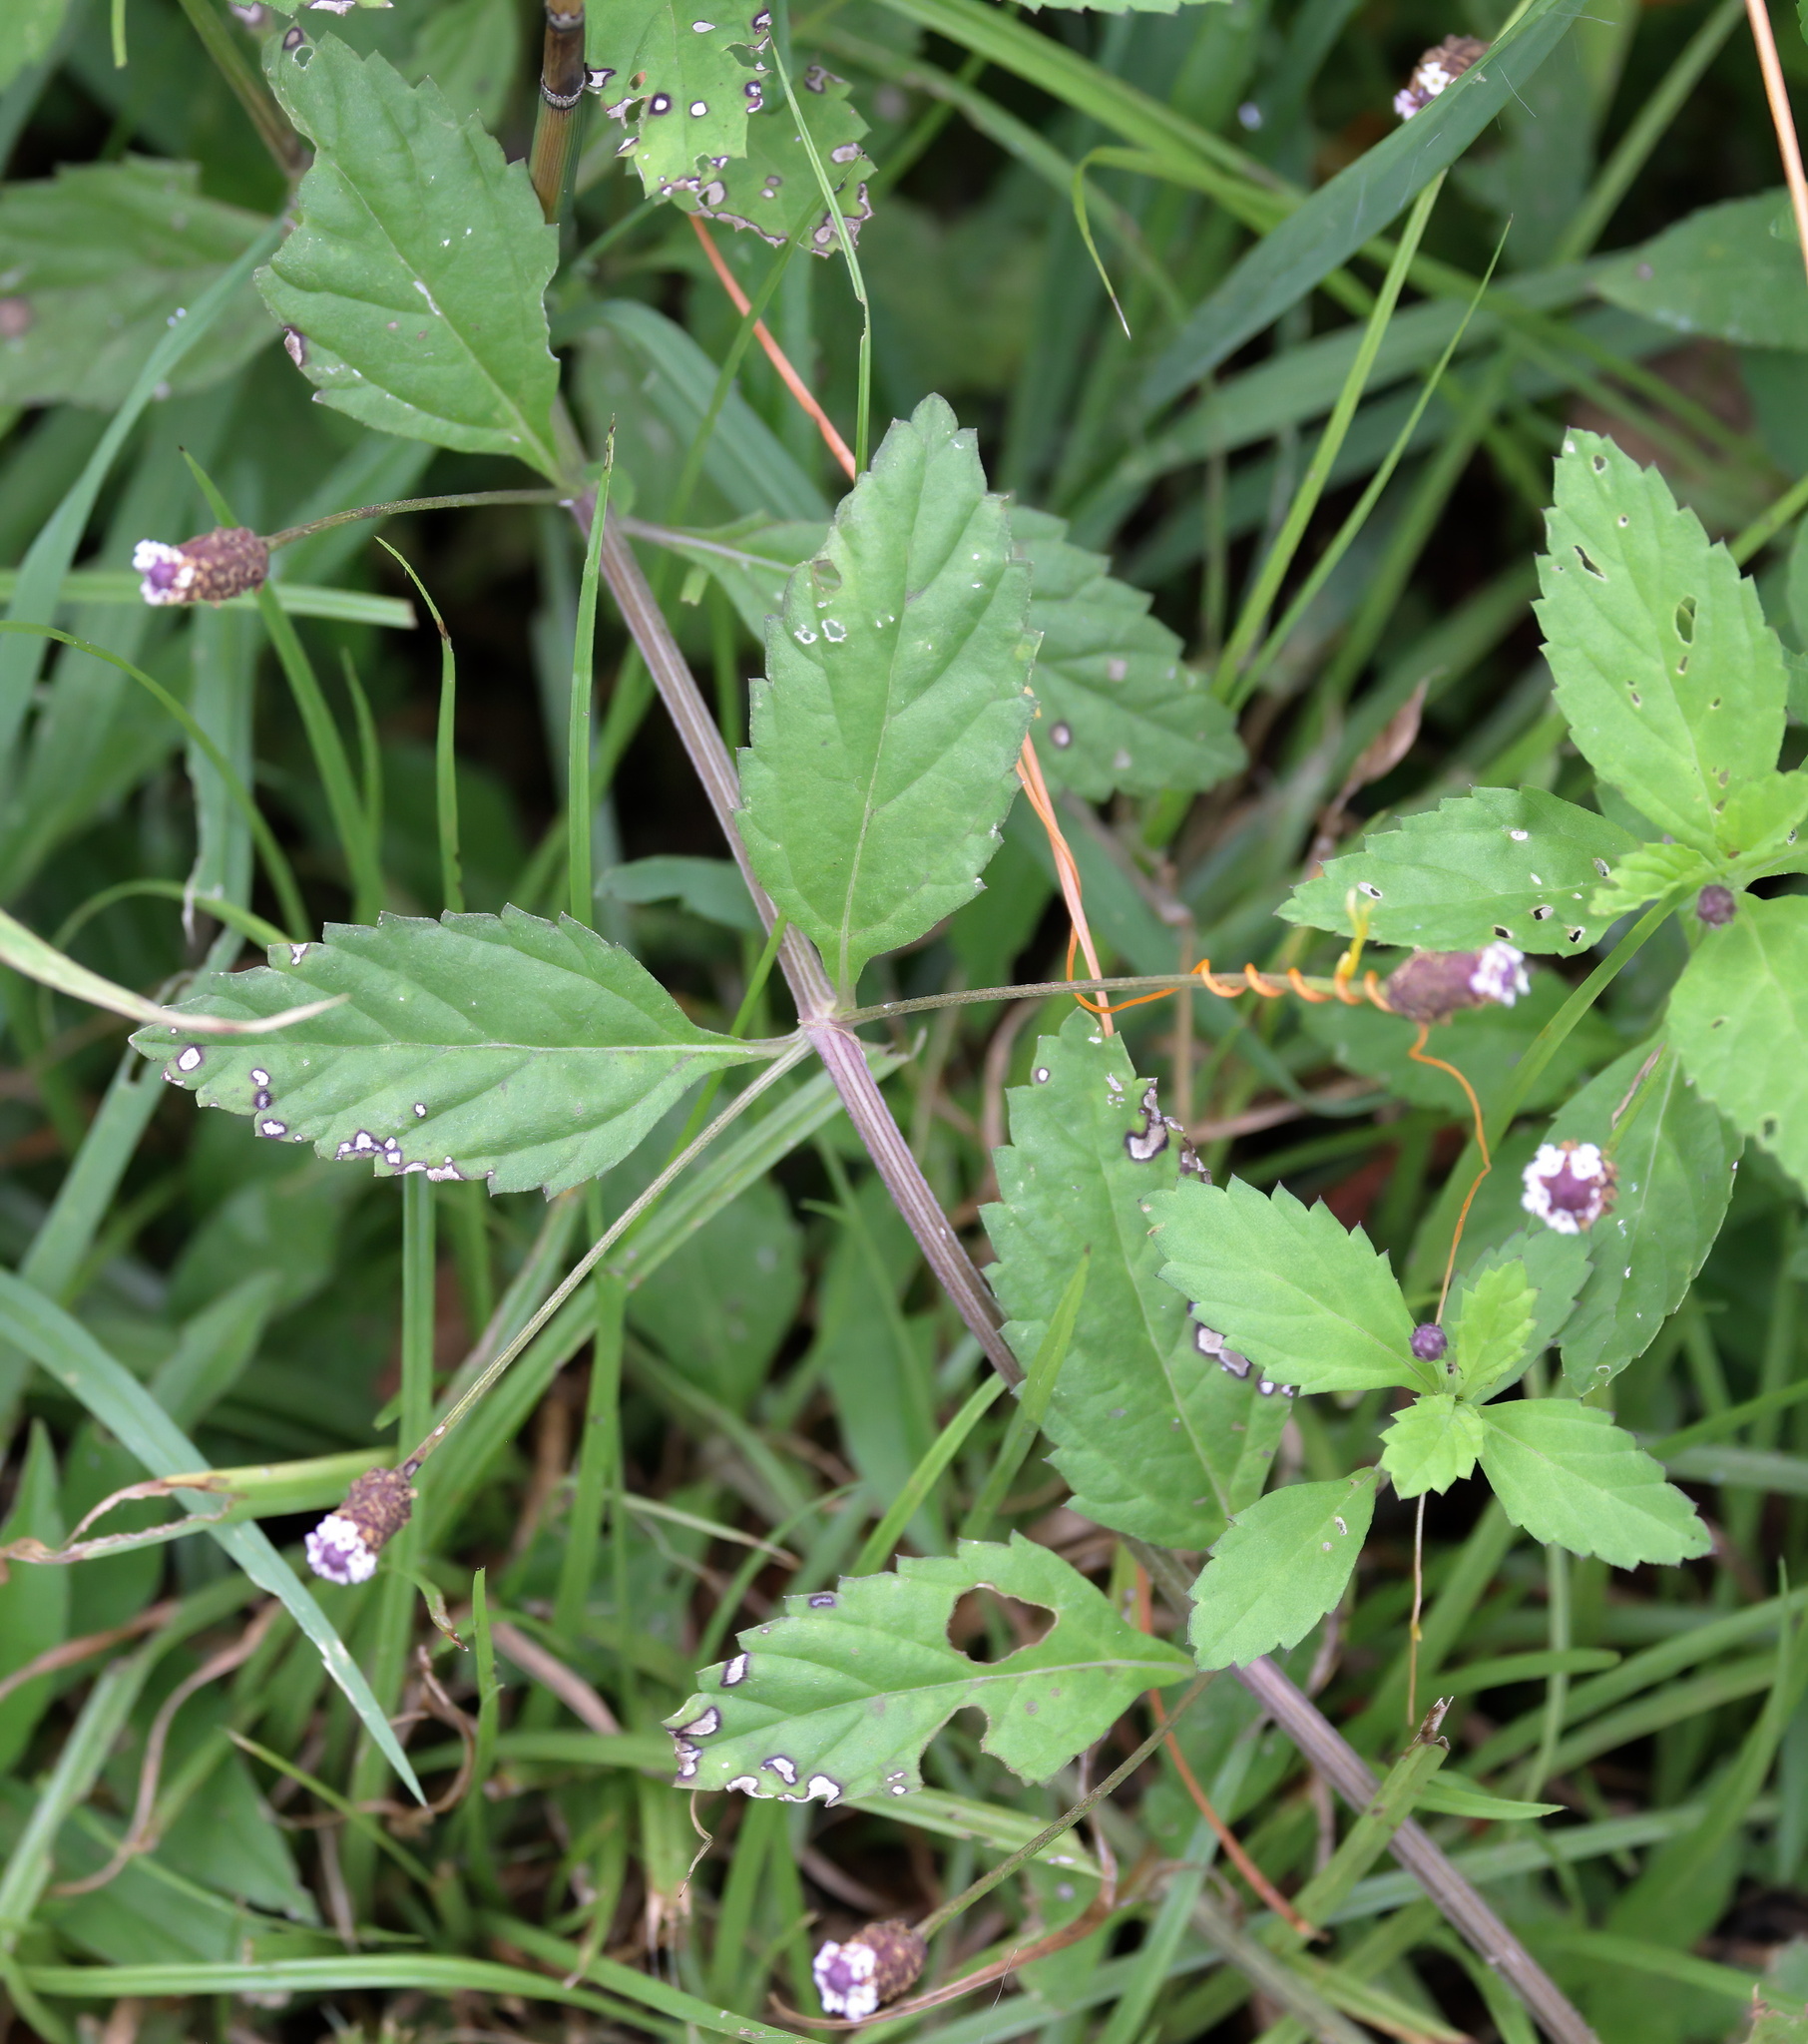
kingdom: Plantae
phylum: Tracheophyta
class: Magnoliopsida
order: Lamiales
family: Verbenaceae
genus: Phyla
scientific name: Phyla lanceolata
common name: Northern fogfruit
